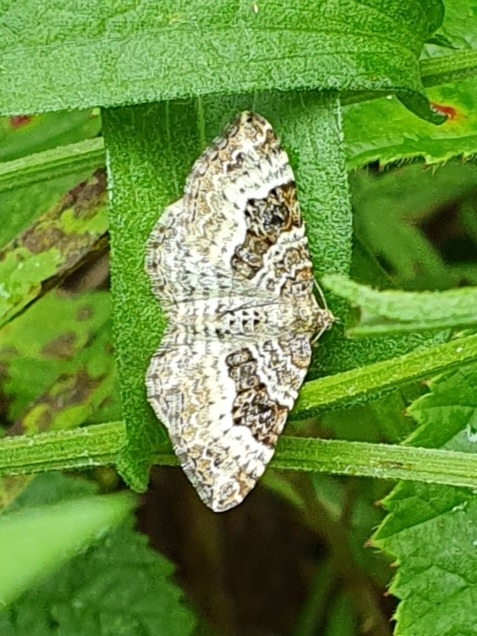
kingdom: Animalia
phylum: Arthropoda
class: Insecta
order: Lepidoptera
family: Geometridae
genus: Epirrhoe
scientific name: Epirrhoe alternata
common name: Common carpet
